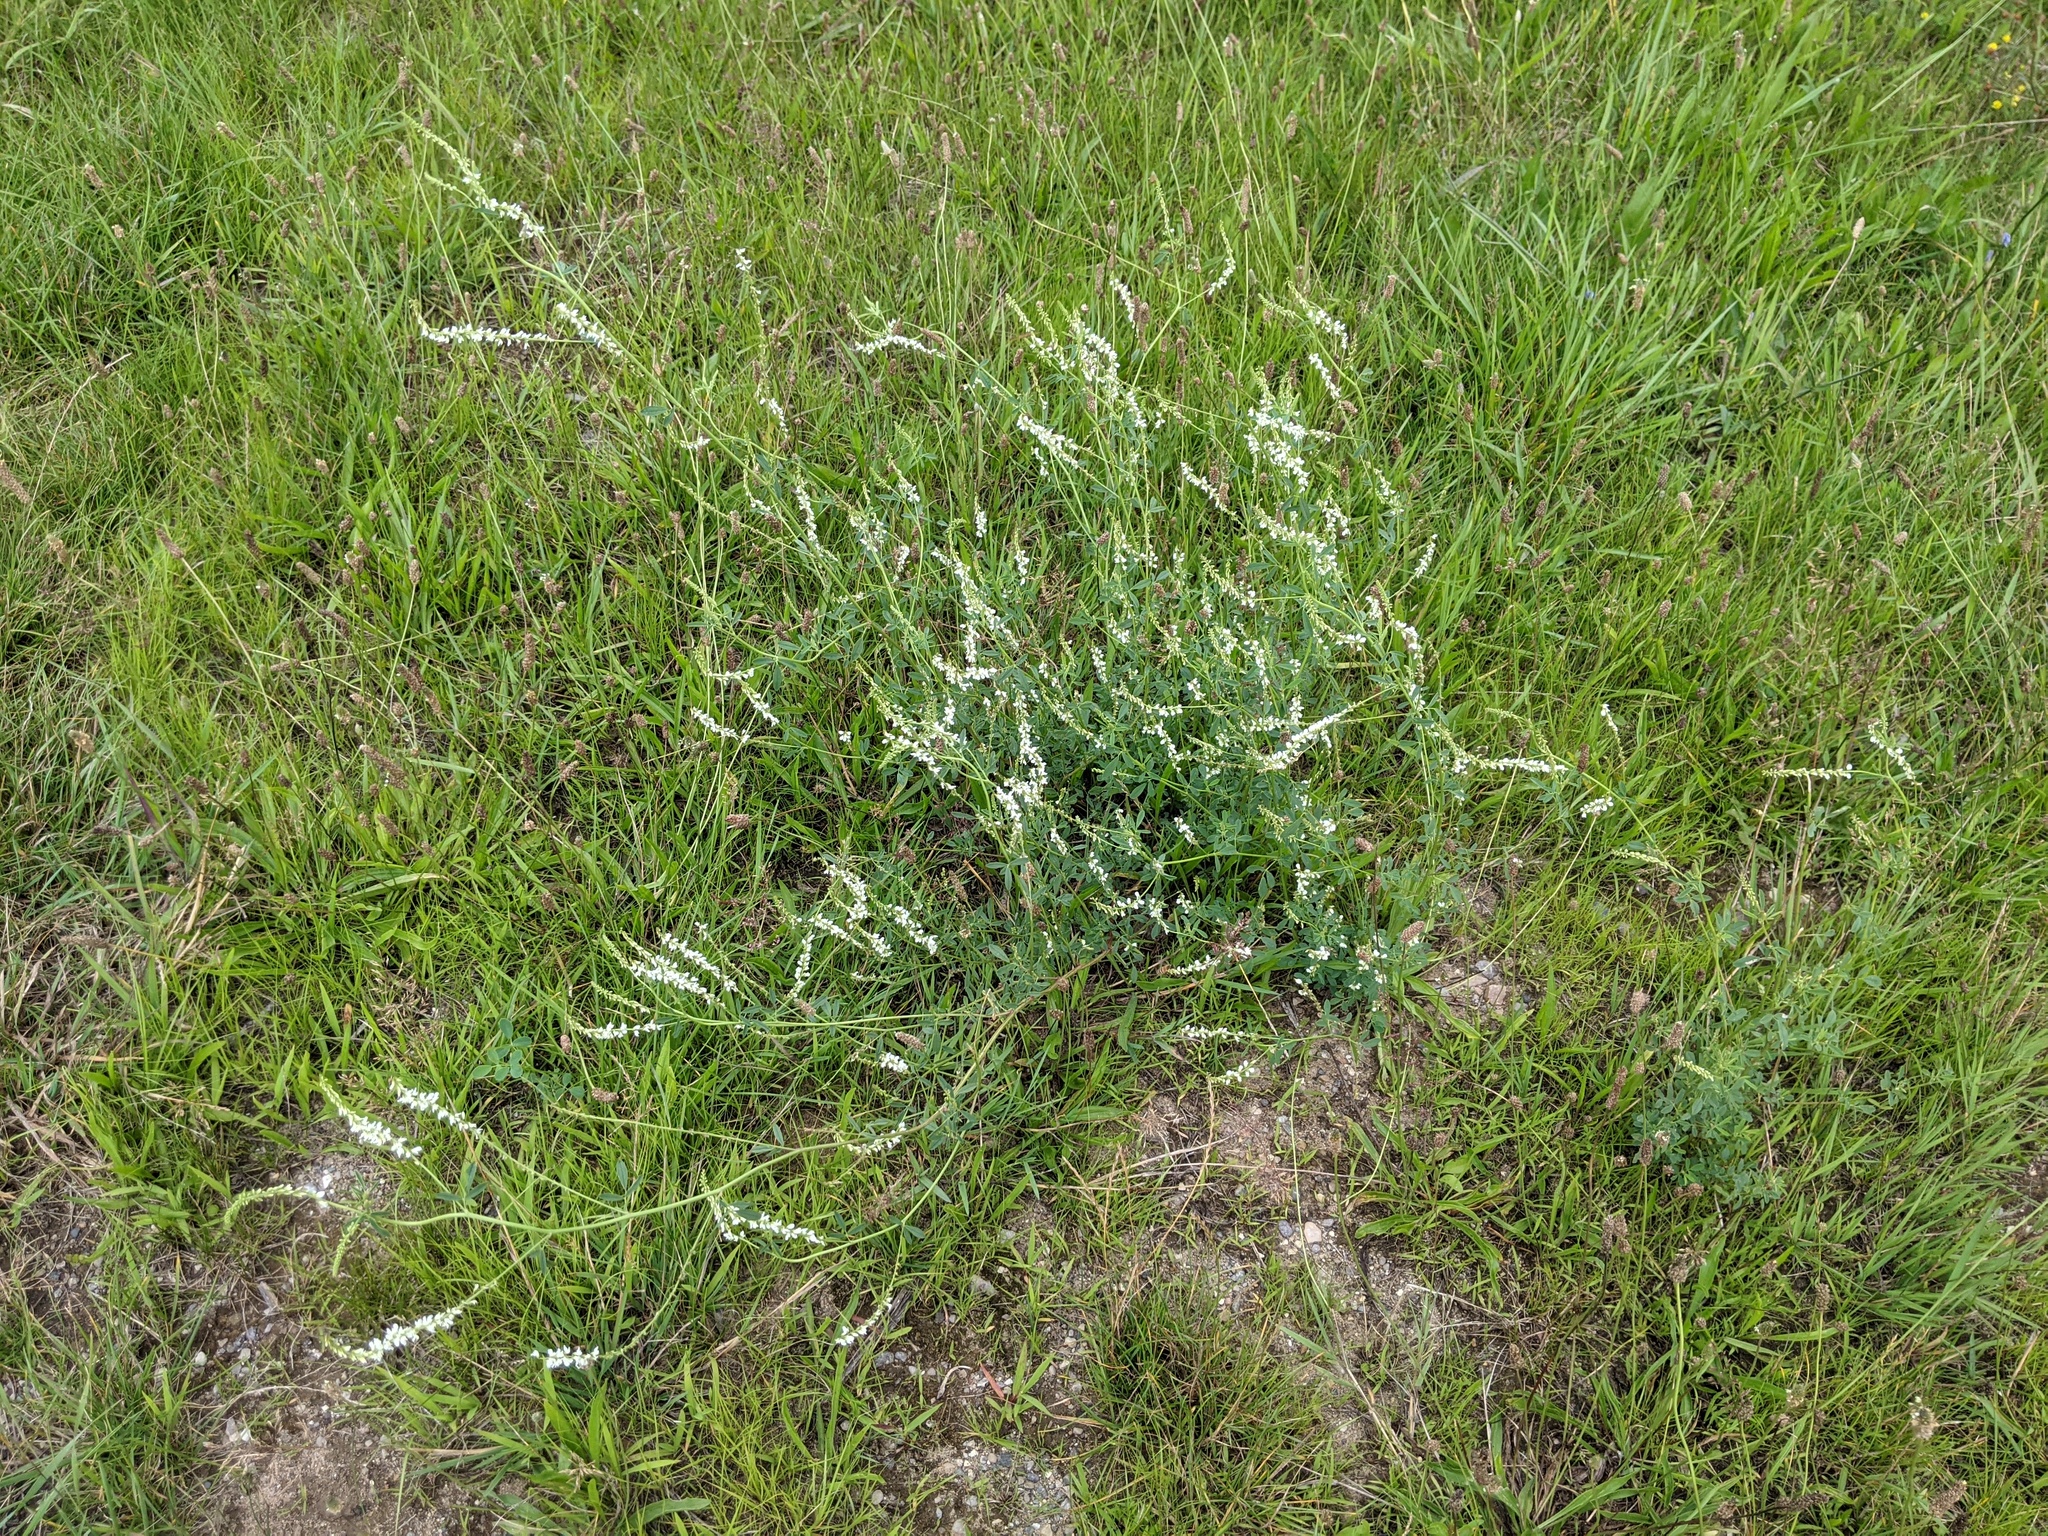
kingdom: Plantae
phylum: Tracheophyta
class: Magnoliopsida
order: Fabales
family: Fabaceae
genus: Melilotus
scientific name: Melilotus albus
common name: White melilot
